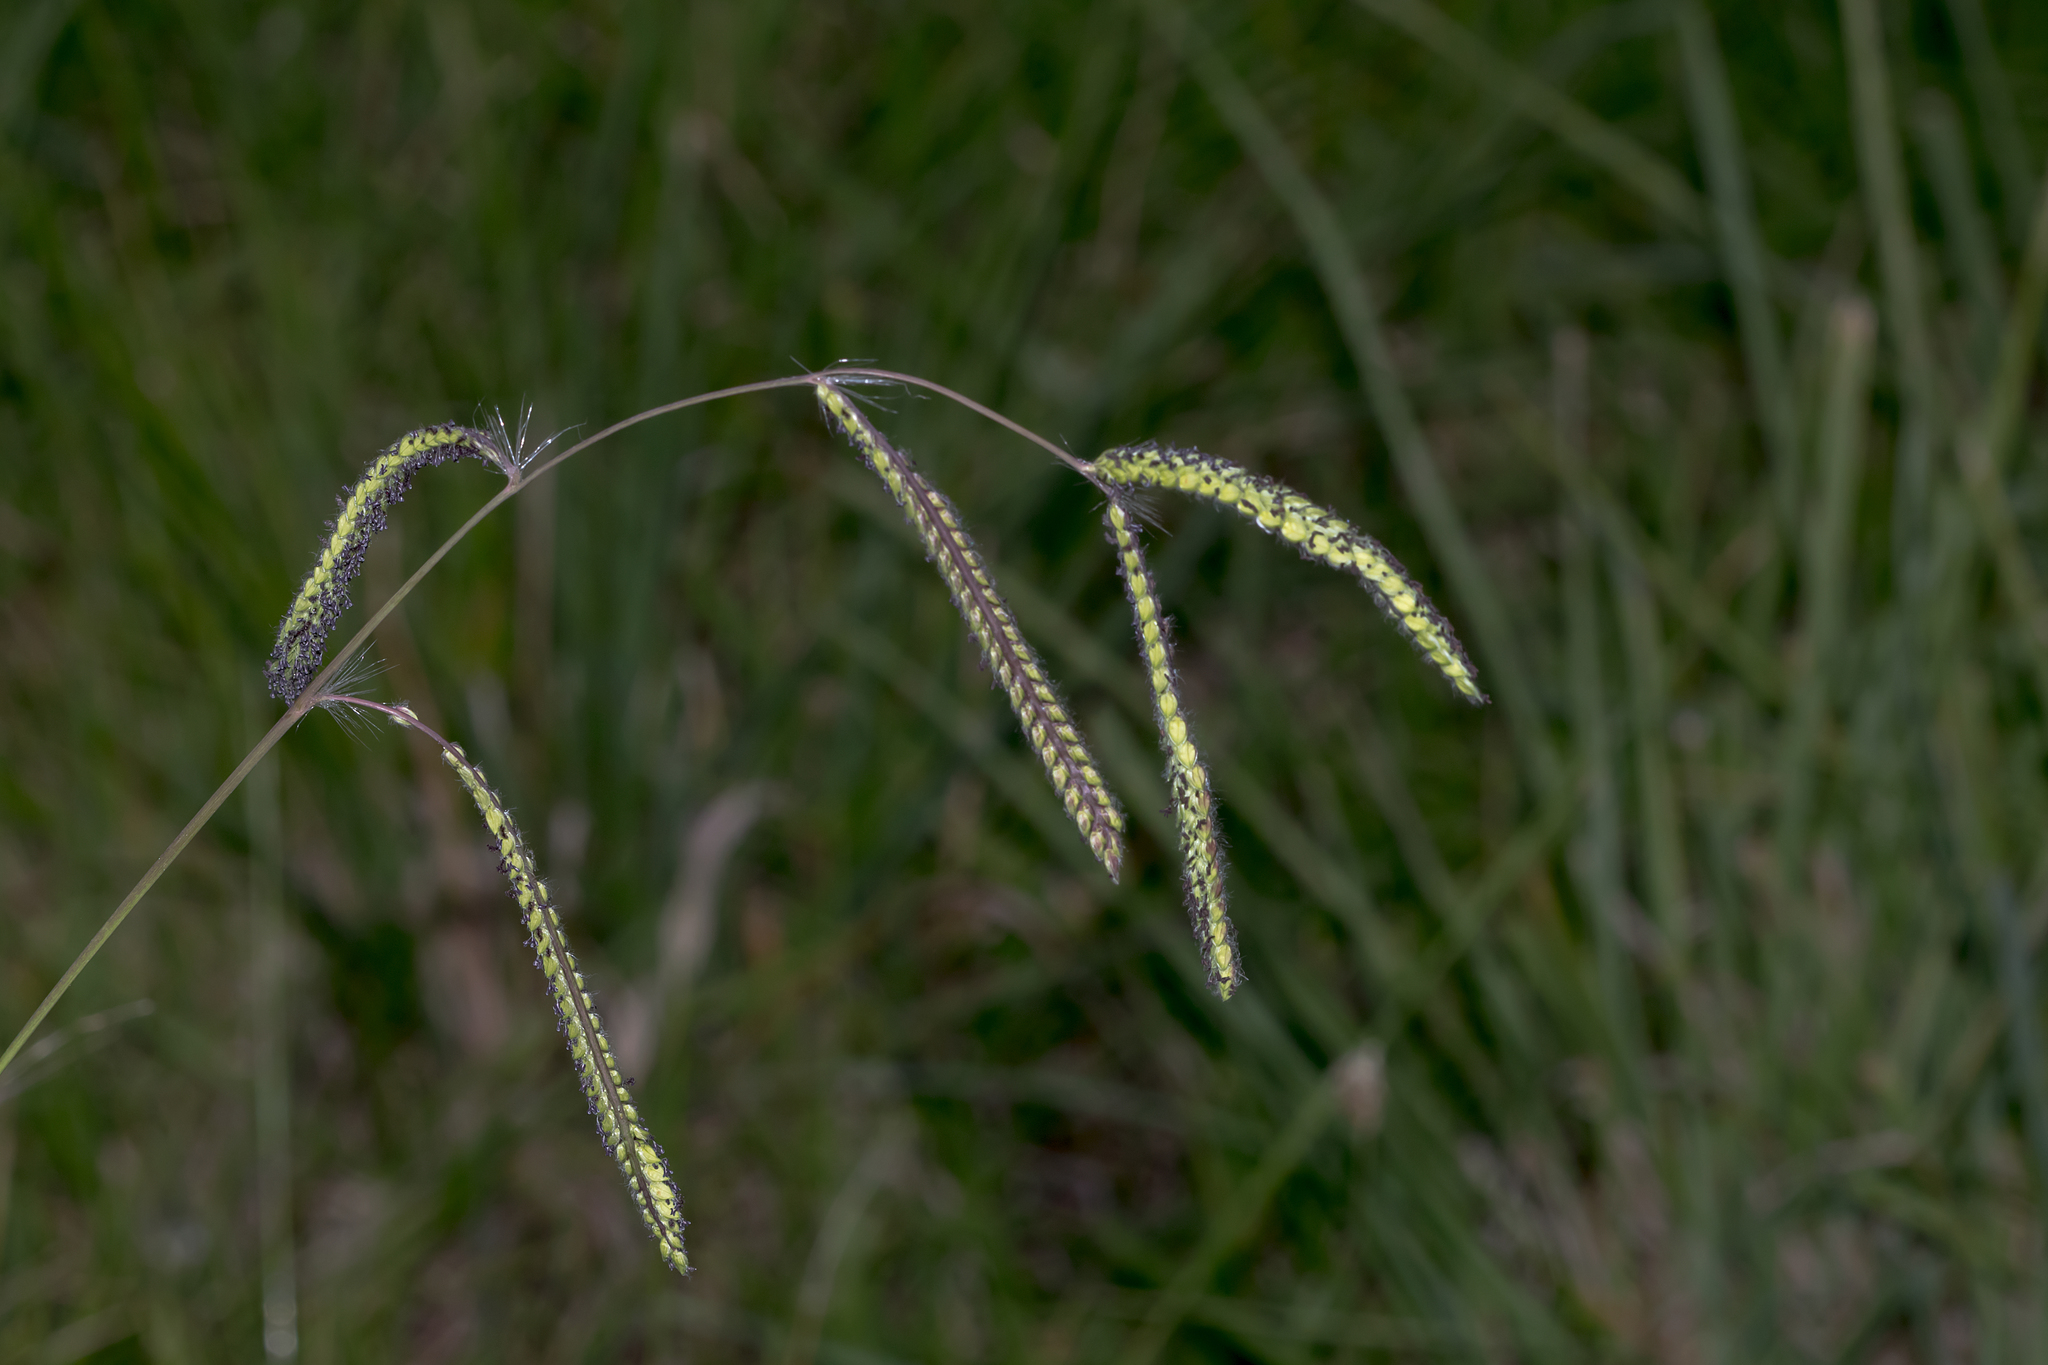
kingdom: Plantae
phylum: Tracheophyta
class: Liliopsida
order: Poales
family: Poaceae
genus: Paspalum
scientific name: Paspalum dilatatum
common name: Dallisgrass
